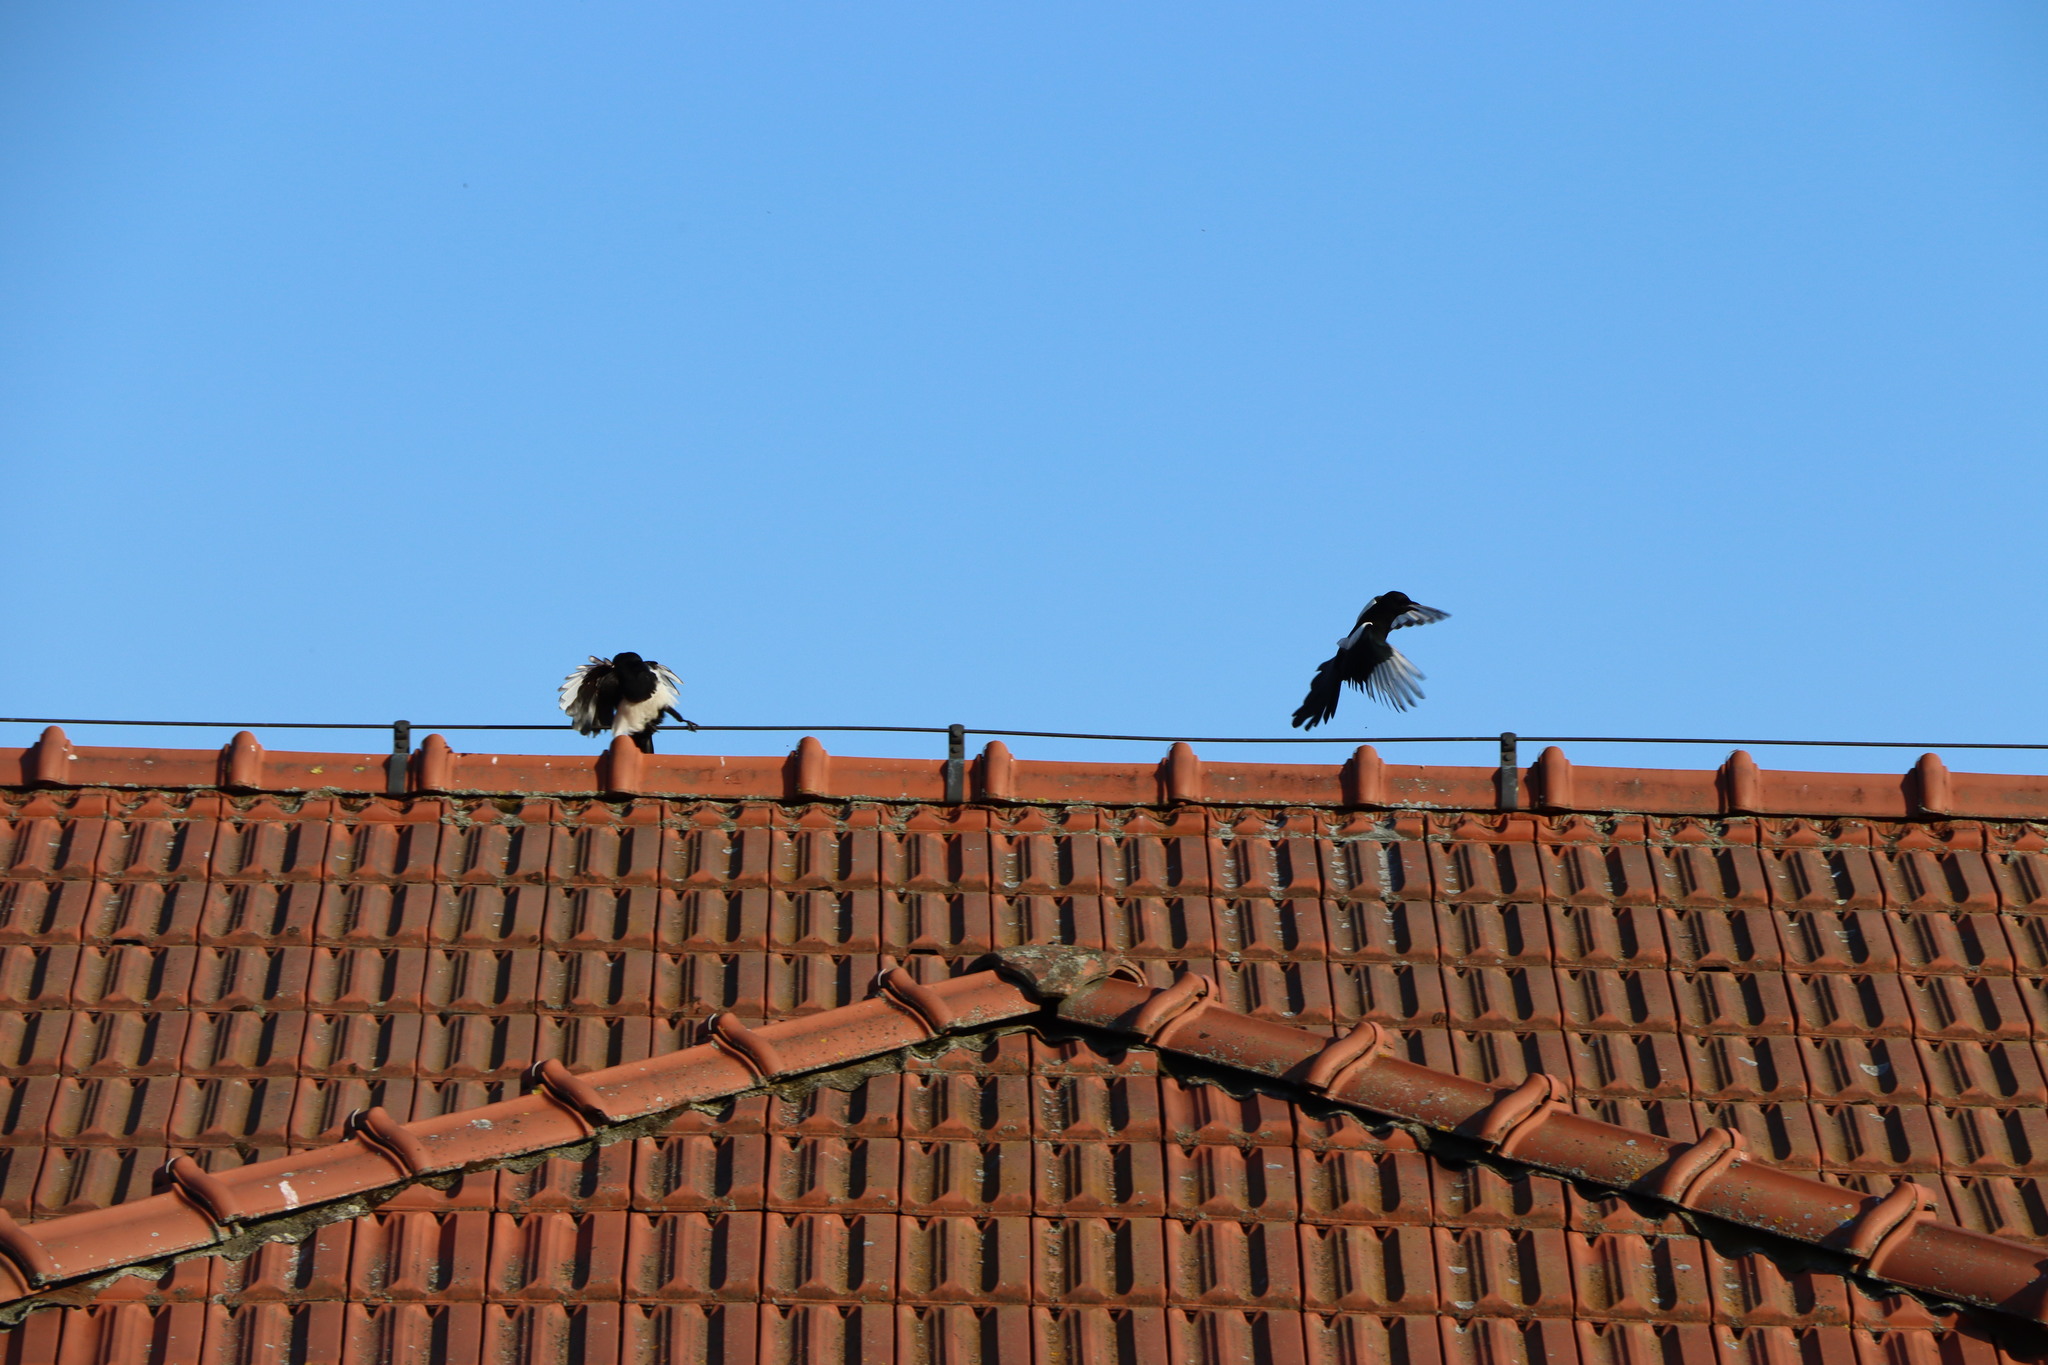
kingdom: Animalia
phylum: Chordata
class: Aves
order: Passeriformes
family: Corvidae
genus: Pica
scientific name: Pica pica
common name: Eurasian magpie
